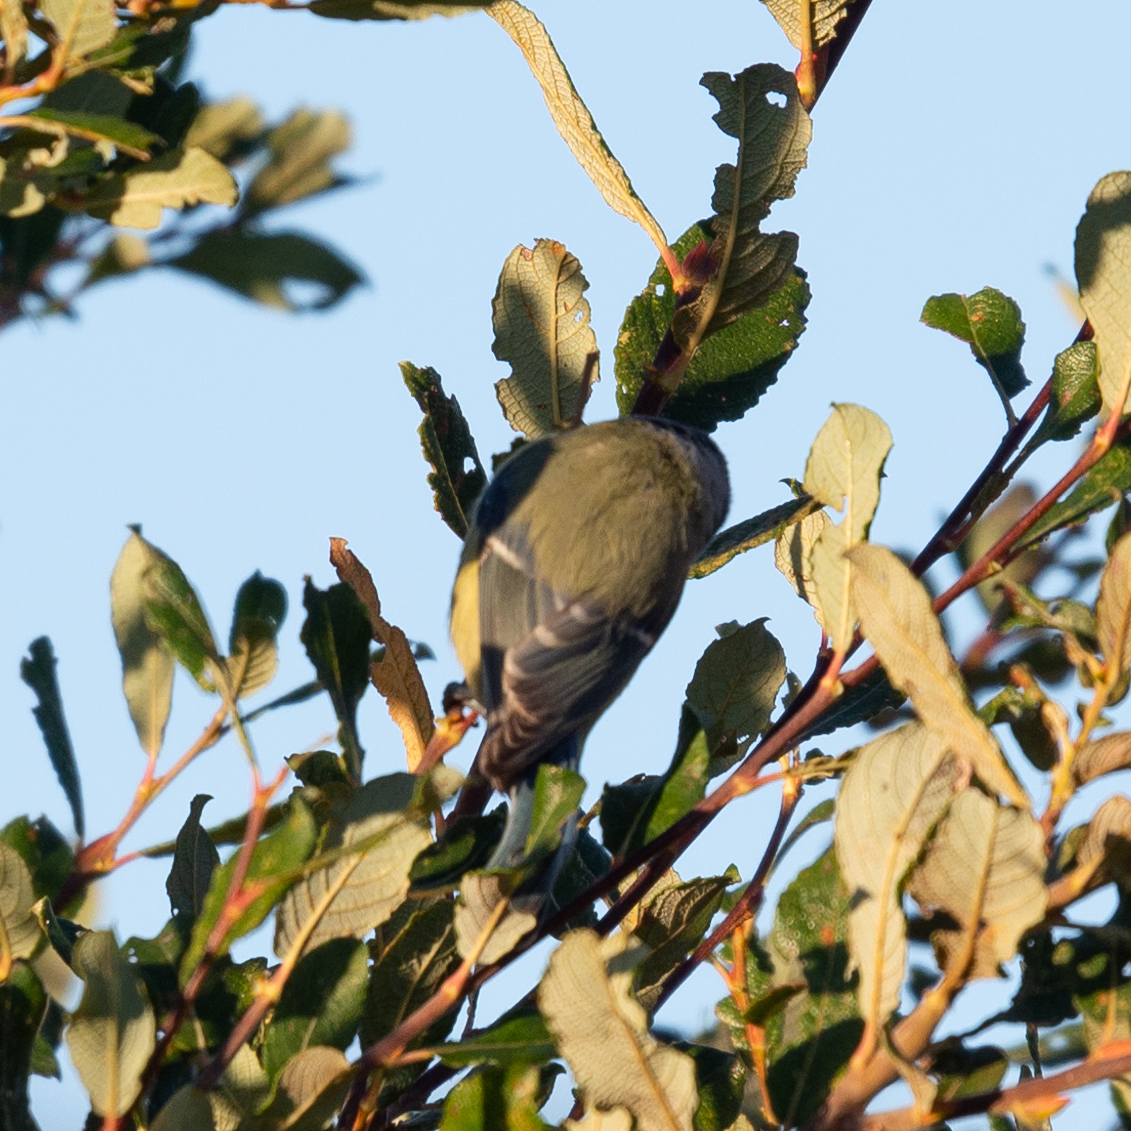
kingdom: Animalia
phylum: Chordata
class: Aves
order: Passeriformes
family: Paridae
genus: Cyanistes
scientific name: Cyanistes caeruleus
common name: Eurasian blue tit
